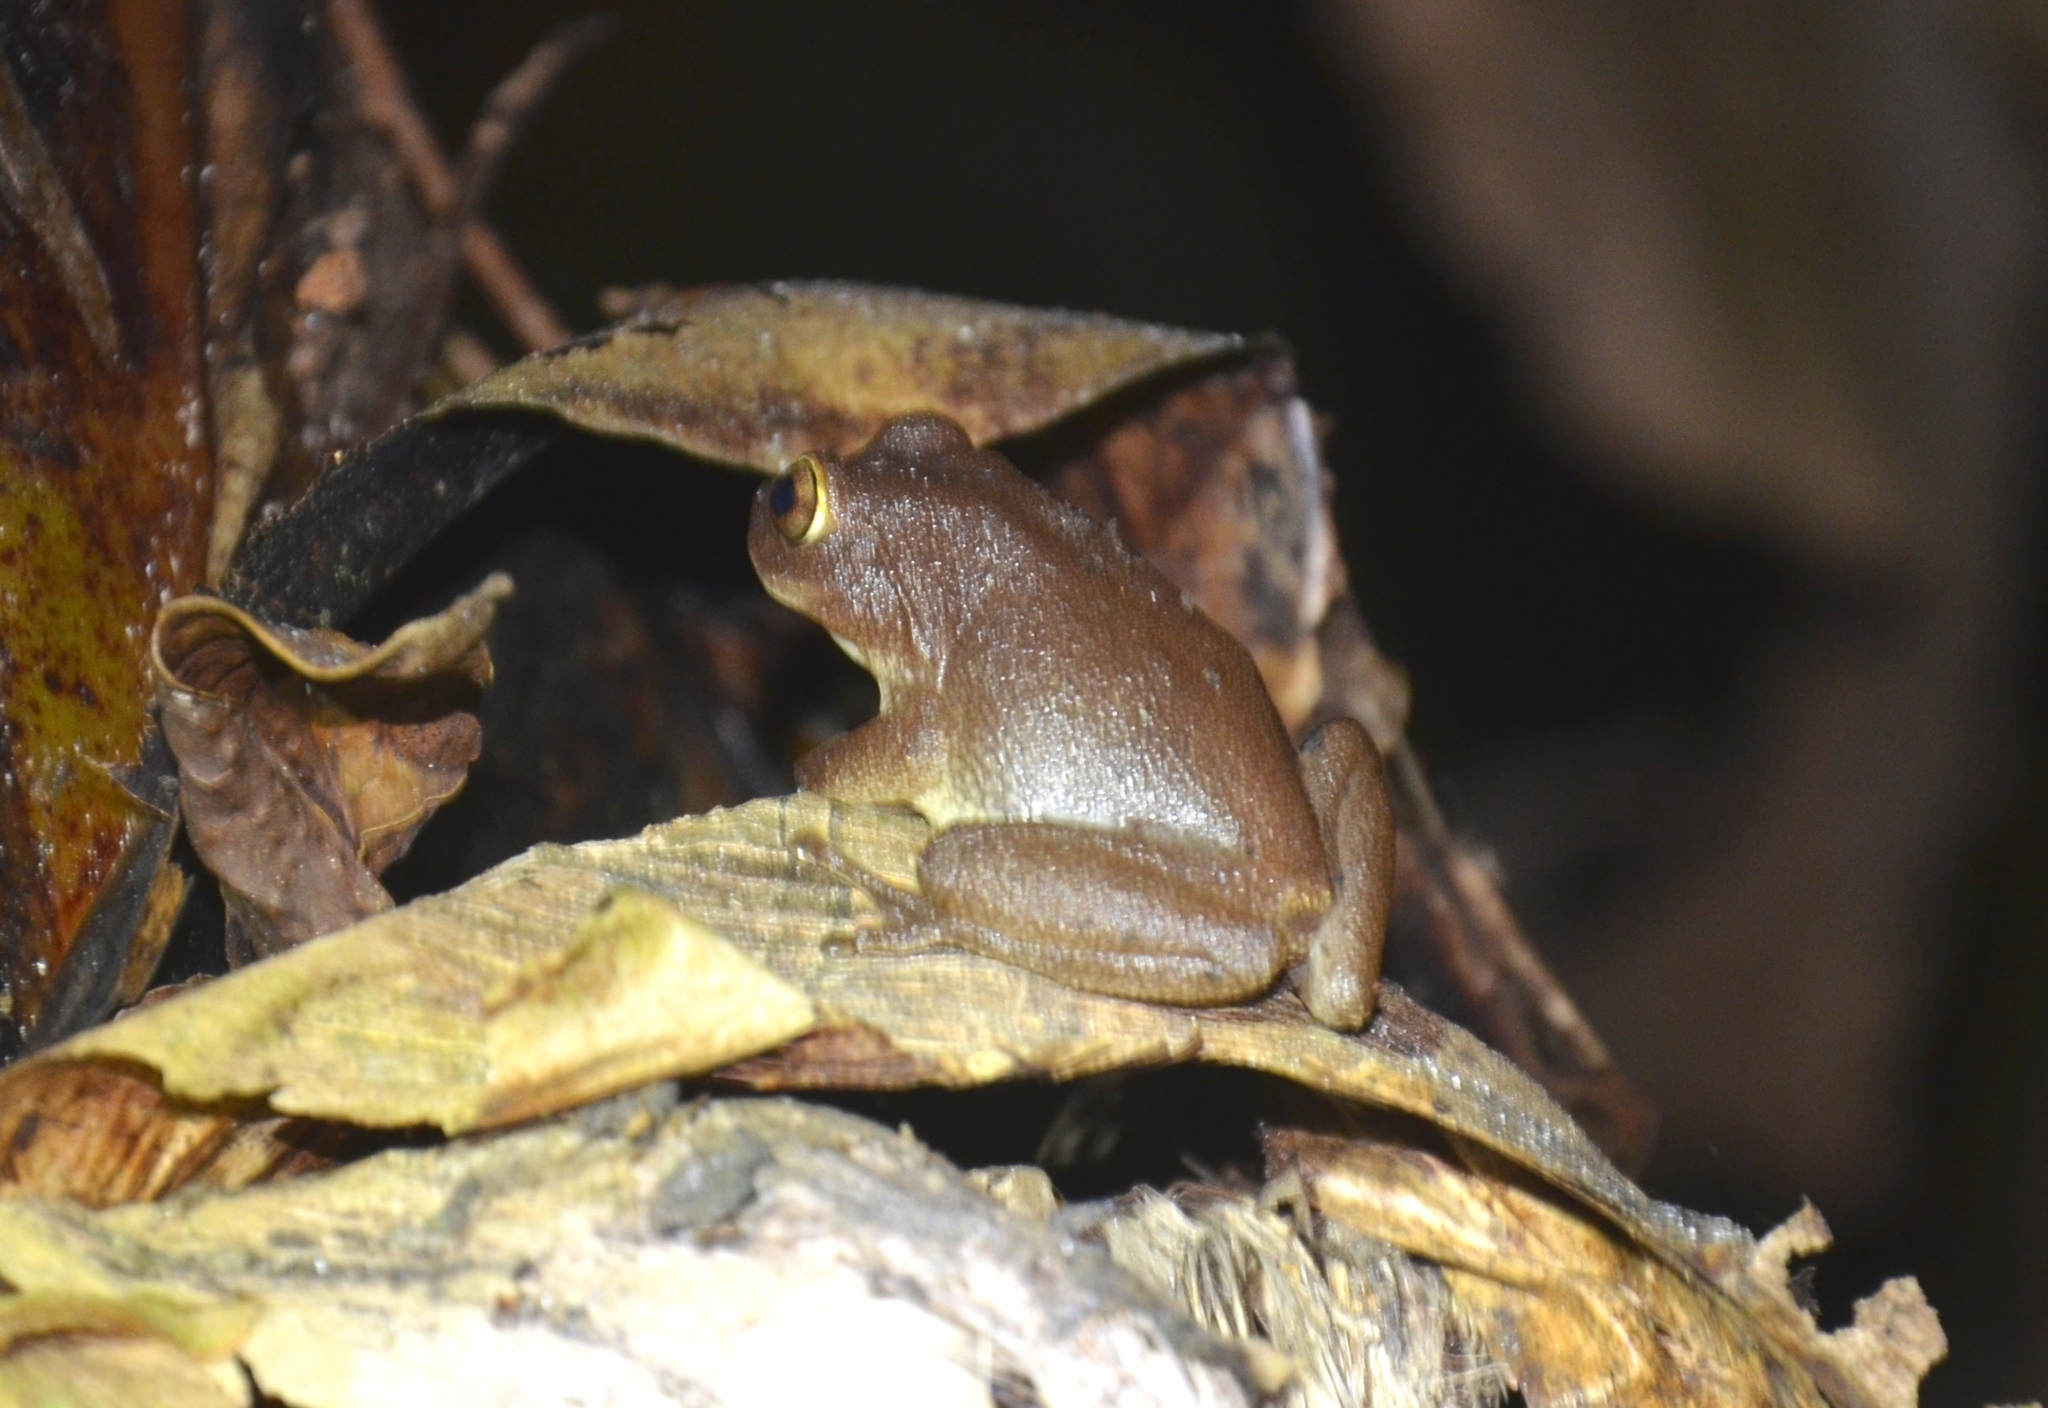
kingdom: Animalia
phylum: Chordata
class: Amphibia
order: Anura
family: Rhacophoridae
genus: Raorchestes
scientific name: Raorchestes ponmudi
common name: Large ponmudi bush frog
